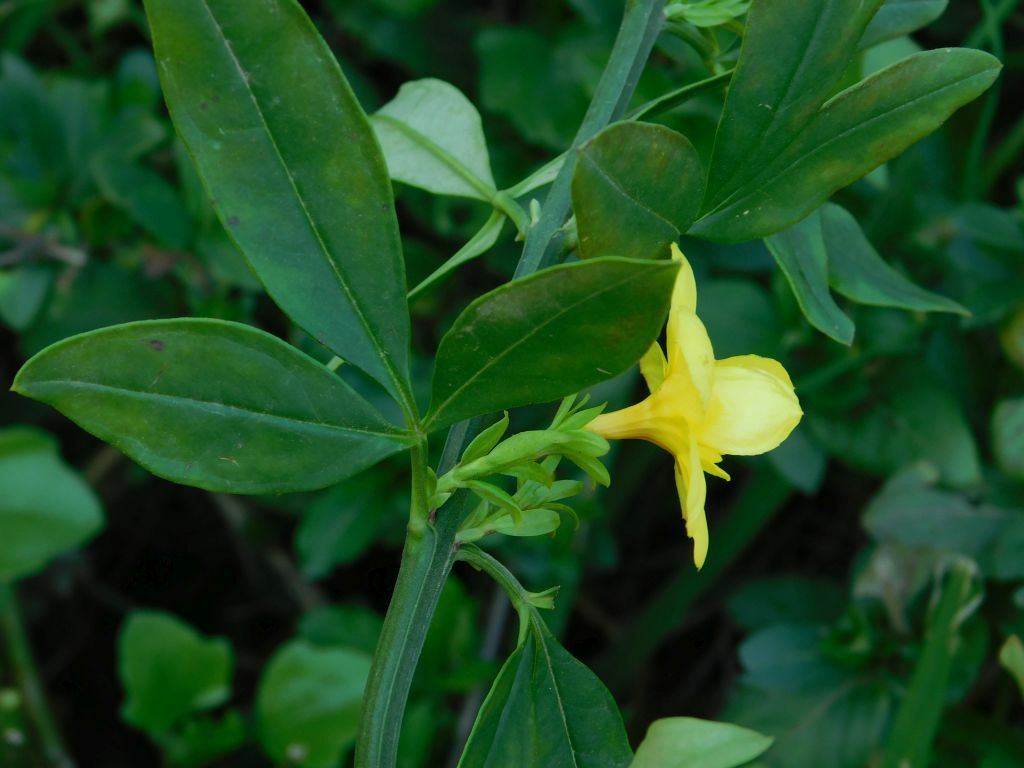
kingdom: Plantae
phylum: Tracheophyta
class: Magnoliopsida
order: Lamiales
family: Oleaceae
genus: Jasminum
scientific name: Jasminum mesnyi
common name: Japanese jasmine
